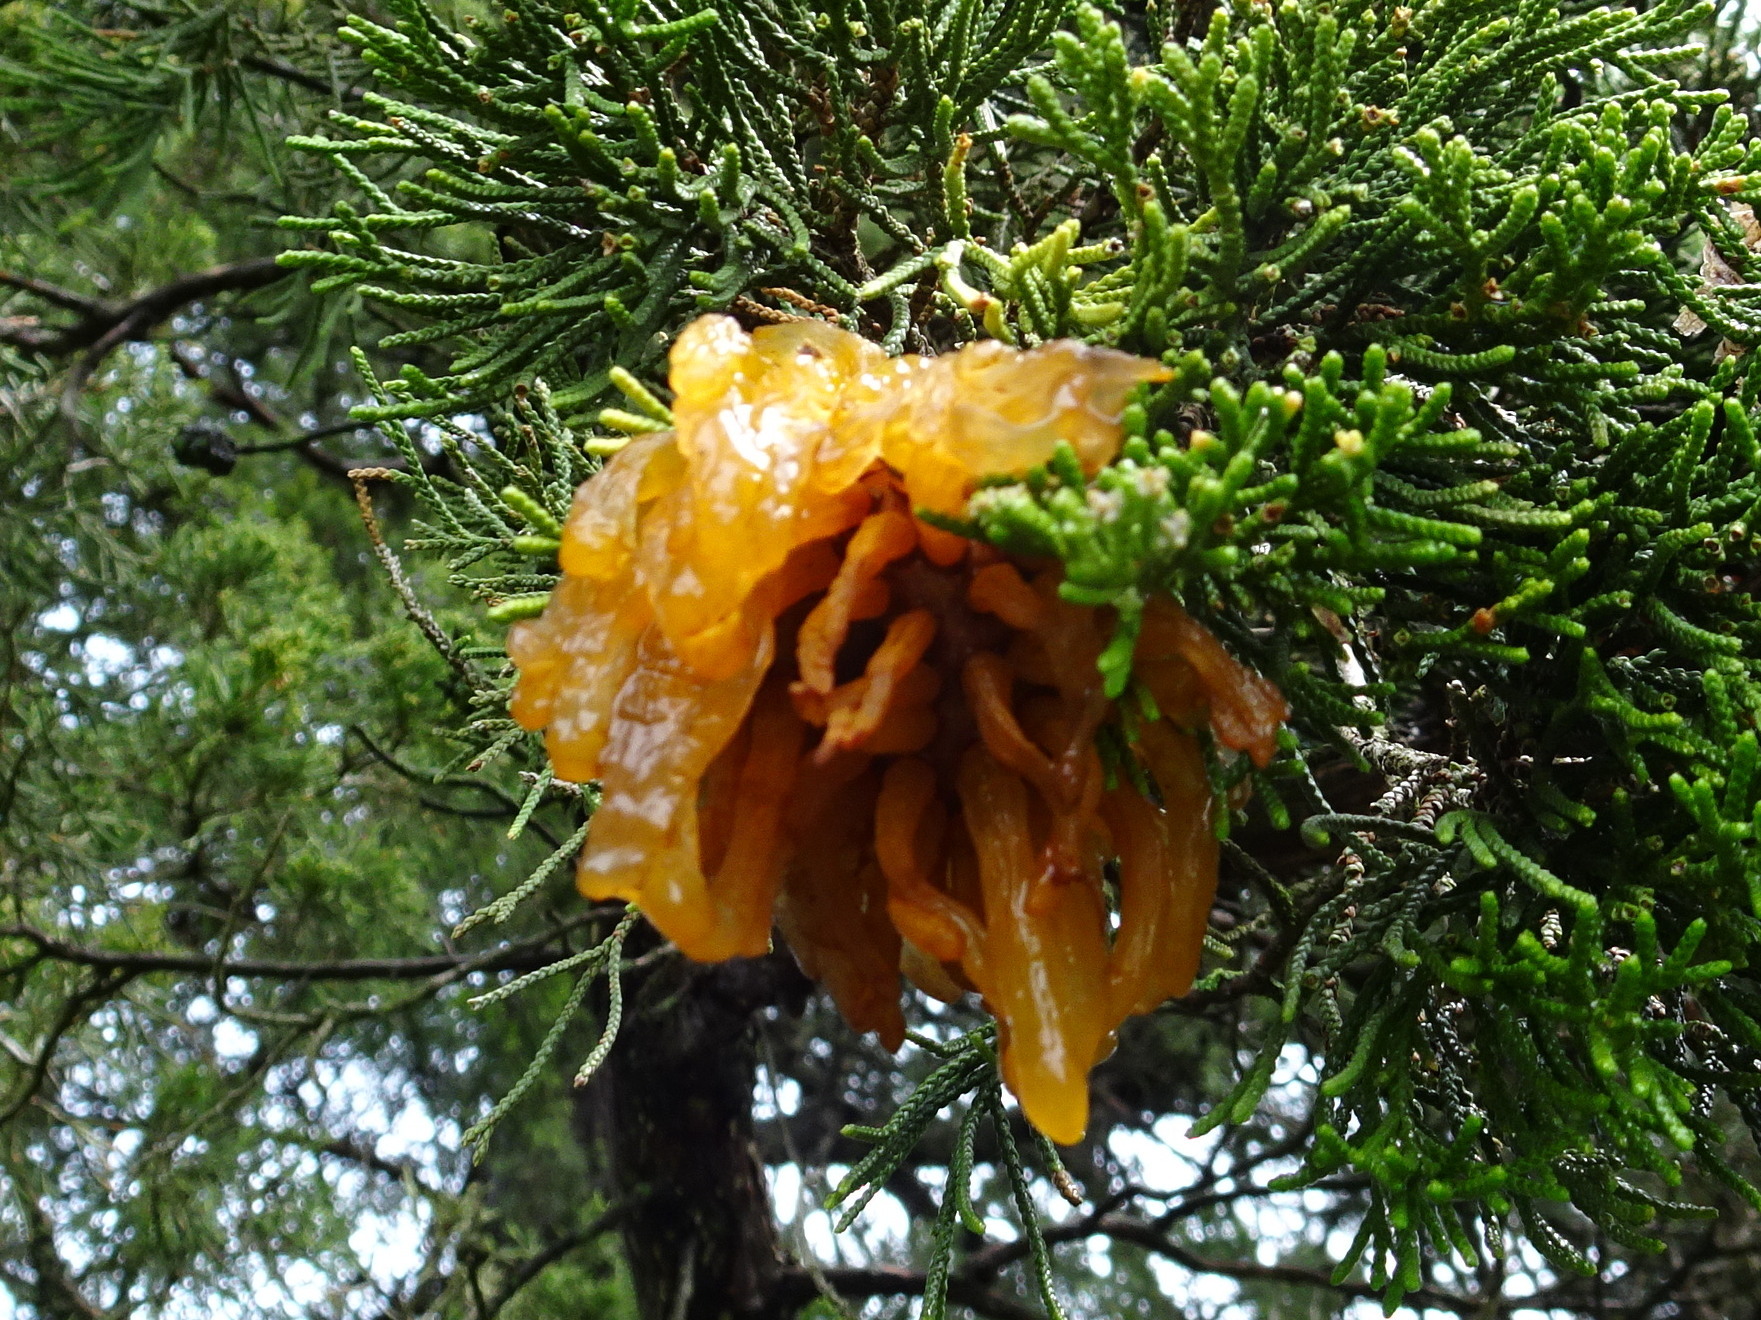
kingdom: Fungi
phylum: Basidiomycota
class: Pucciniomycetes
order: Pucciniales
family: Gymnosporangiaceae
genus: Gymnosporangium
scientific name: Gymnosporangium juniperi-virginianae
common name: Juniper-apple rust
